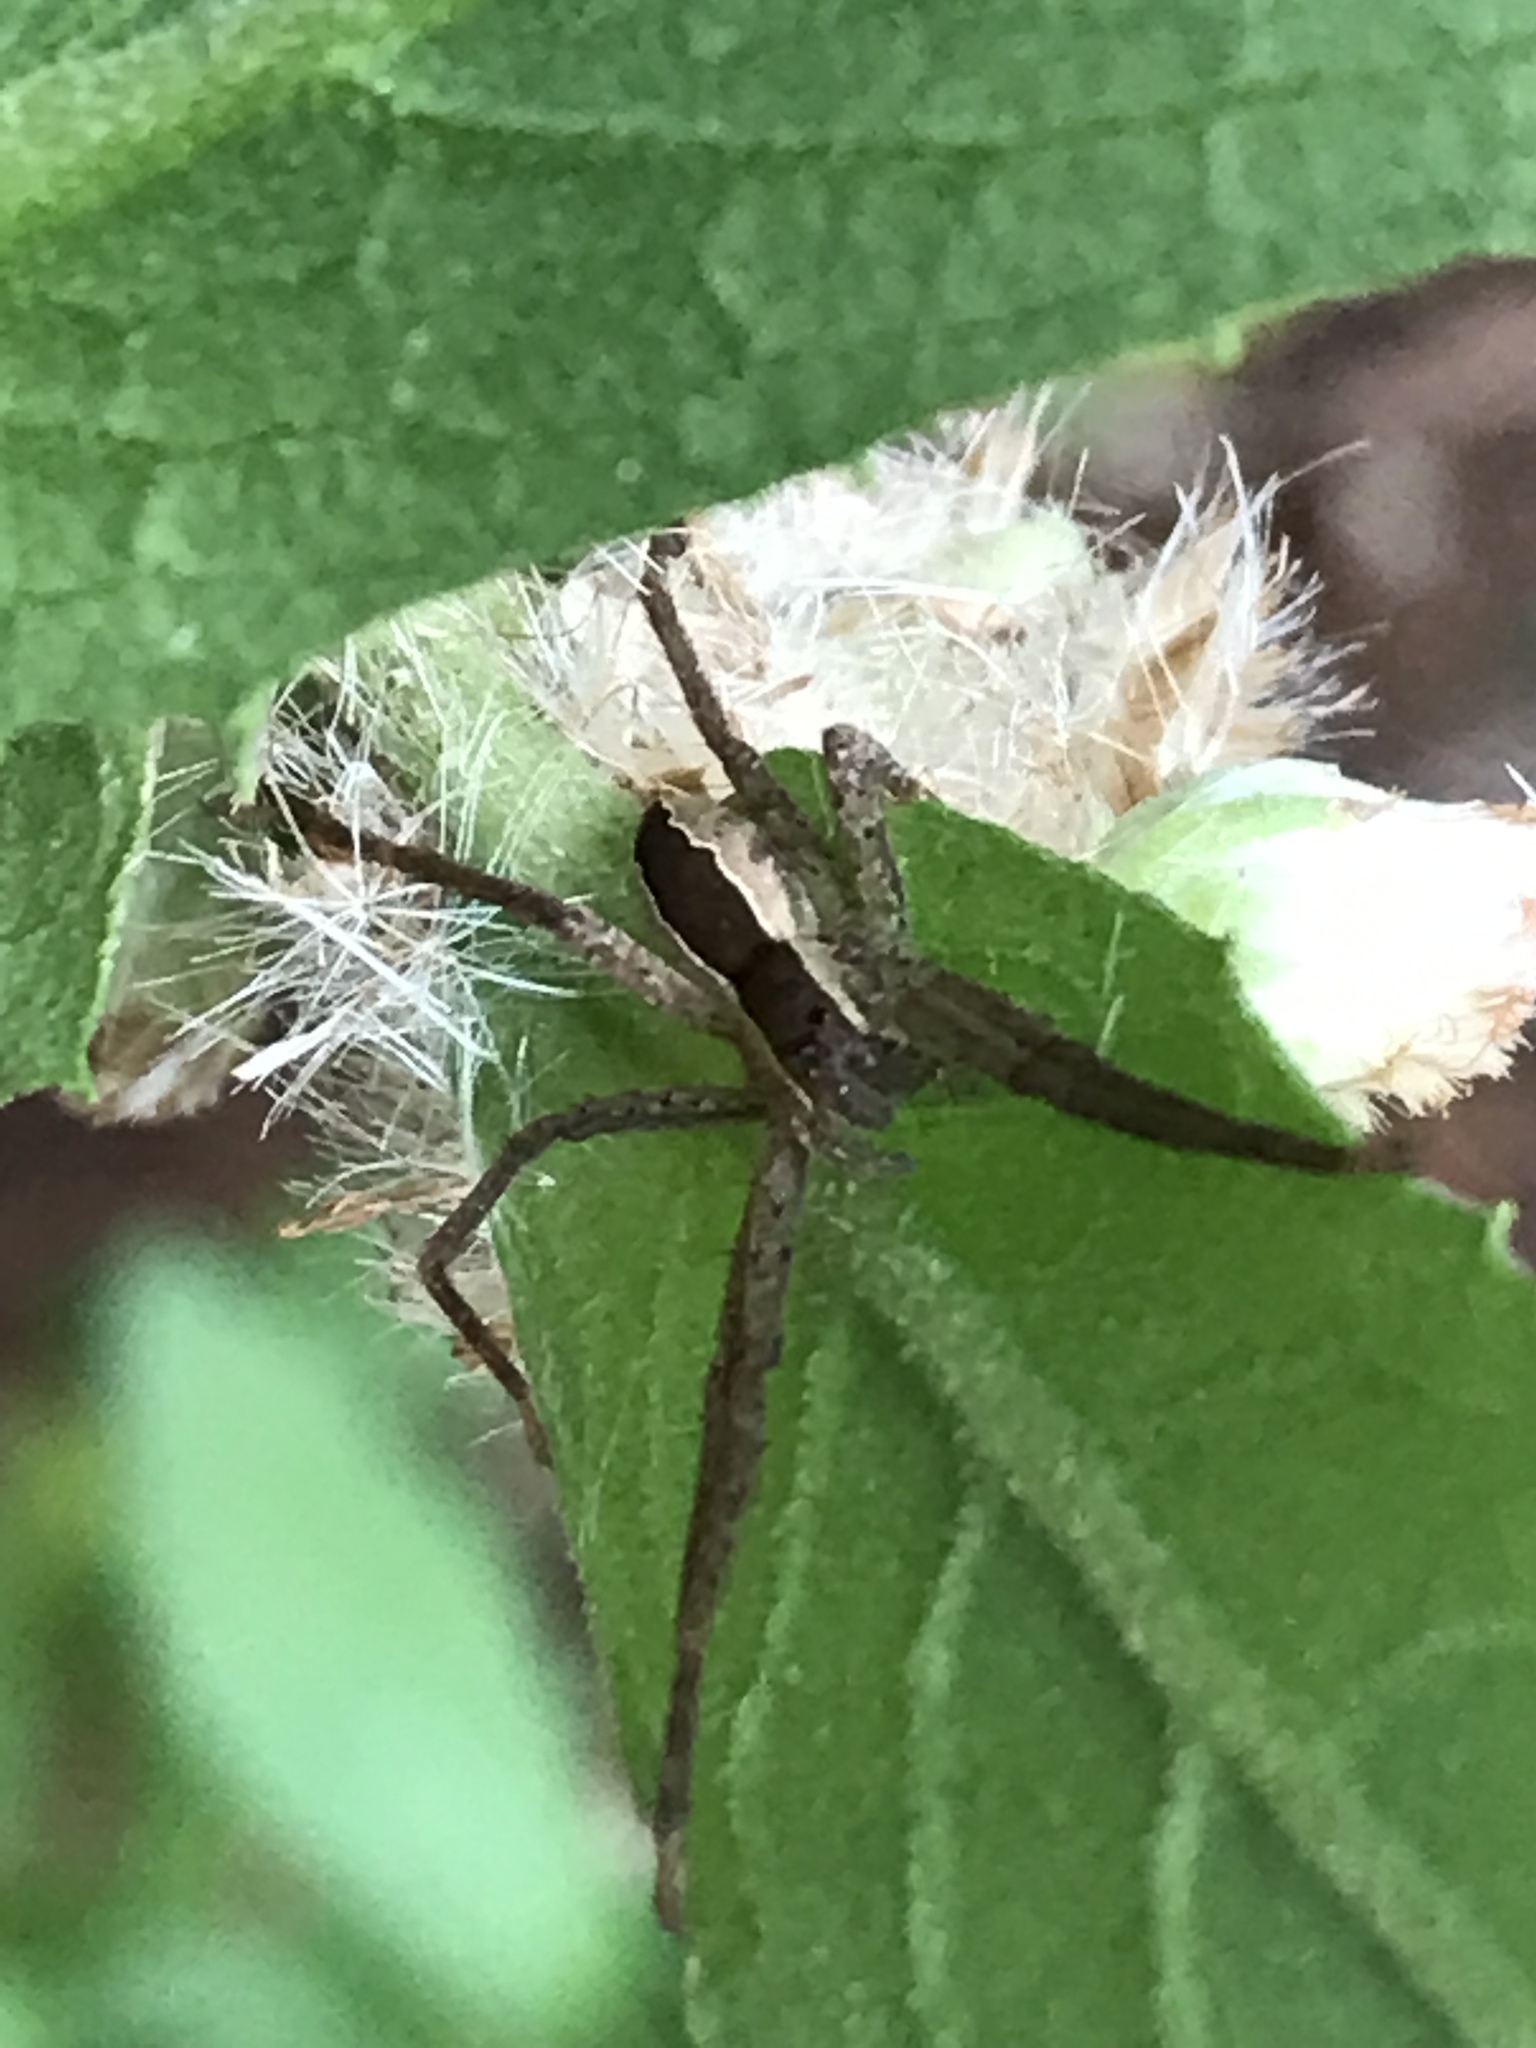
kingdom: Animalia
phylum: Arthropoda
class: Arachnida
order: Araneae
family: Pisauridae
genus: Pisaurina
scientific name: Pisaurina mira
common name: American nursery web spider
